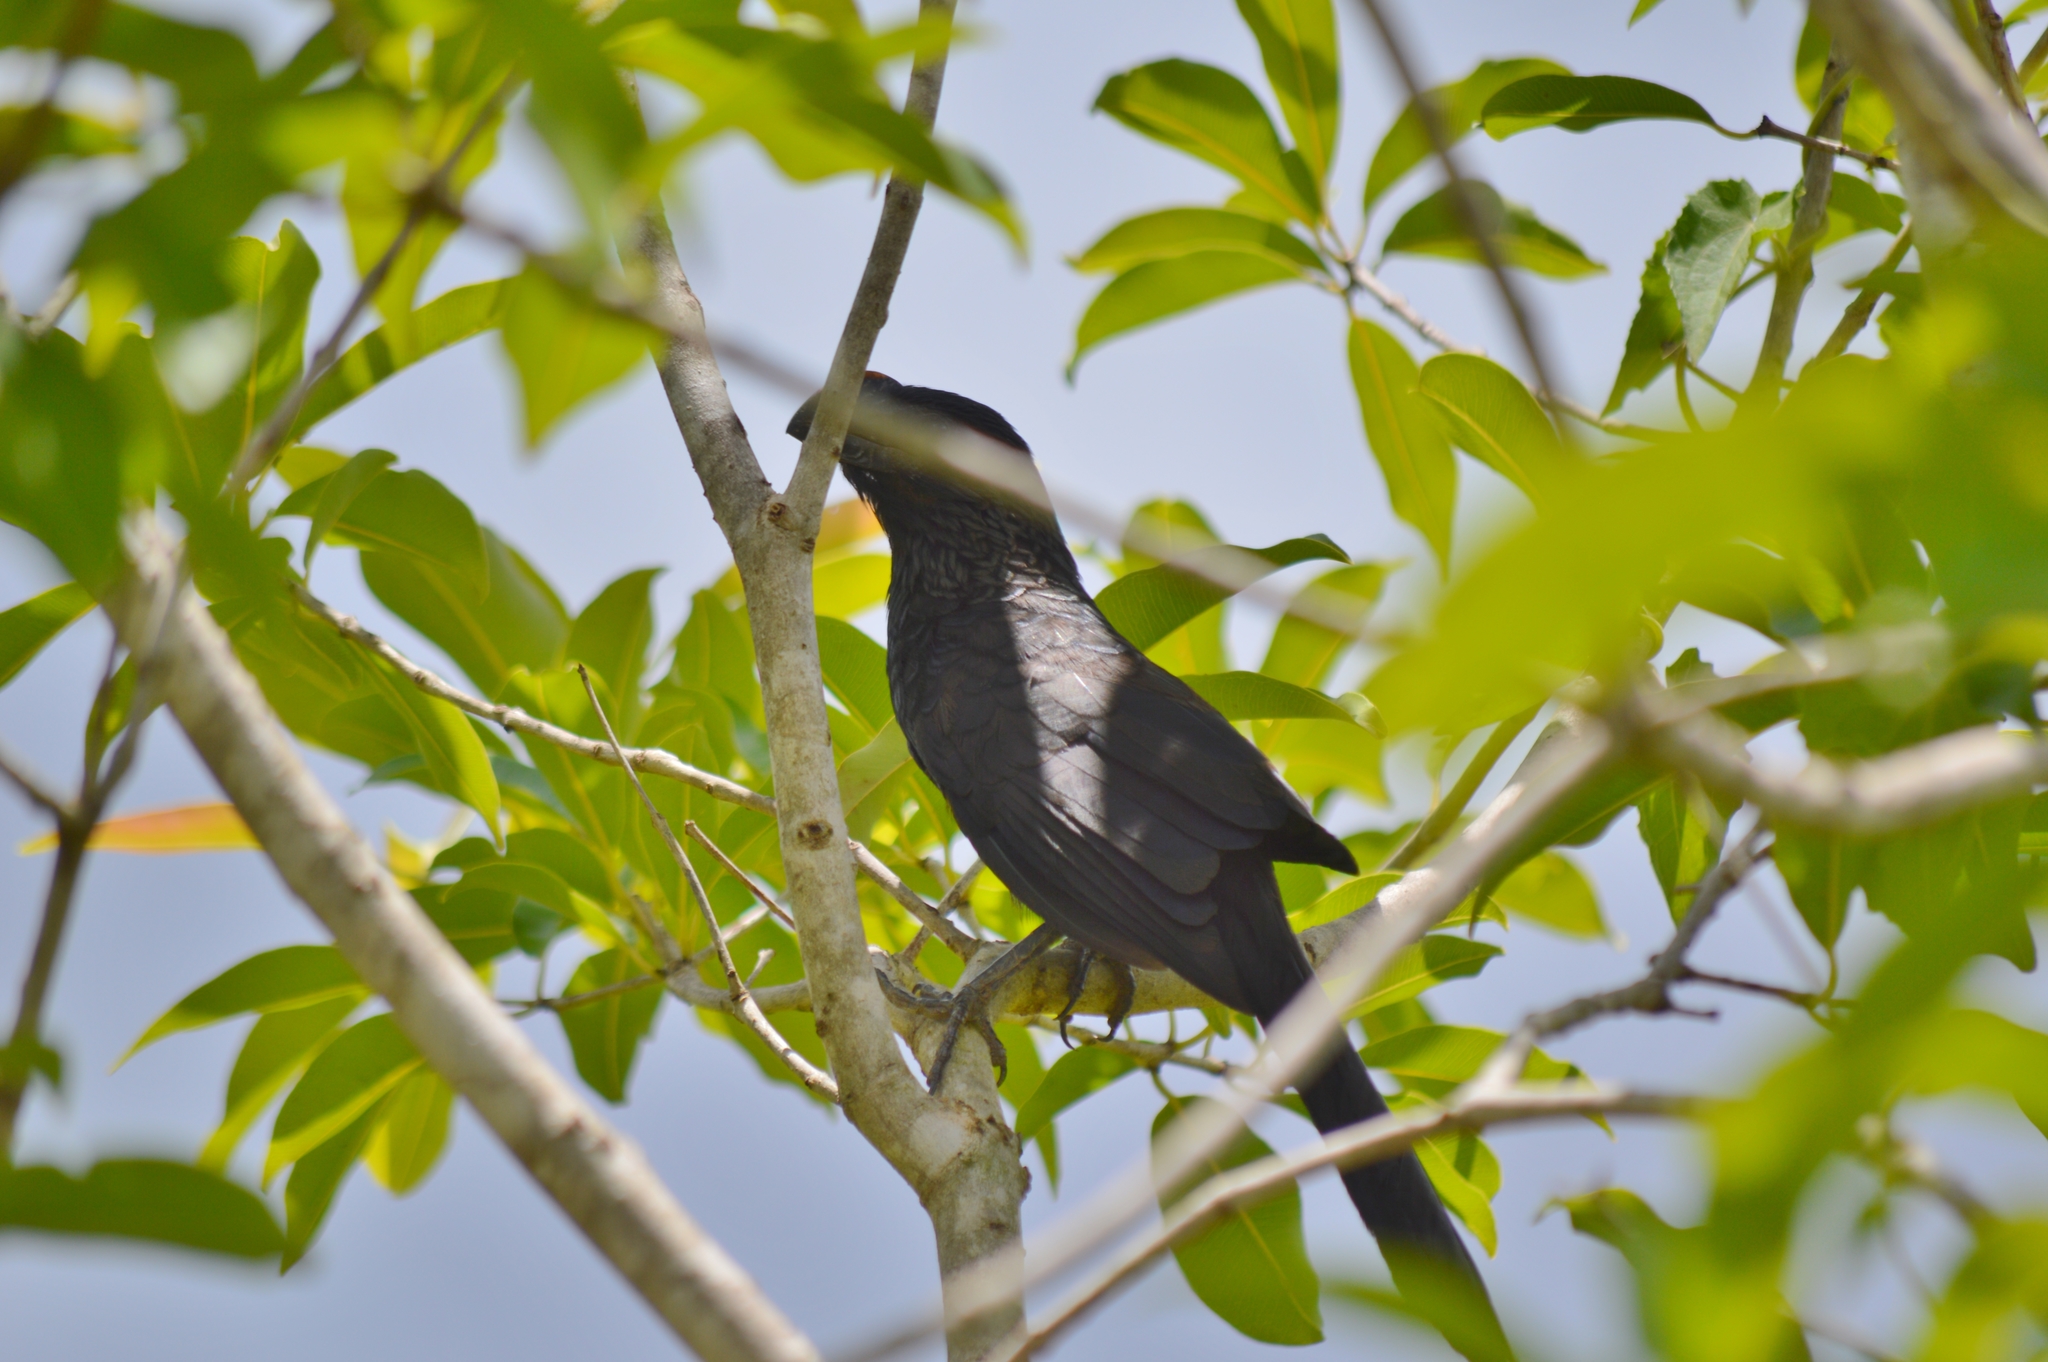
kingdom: Animalia
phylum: Chordata
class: Aves
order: Cuculiformes
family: Cuculidae
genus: Crotophaga
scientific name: Crotophaga ani
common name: Smooth-billed ani
